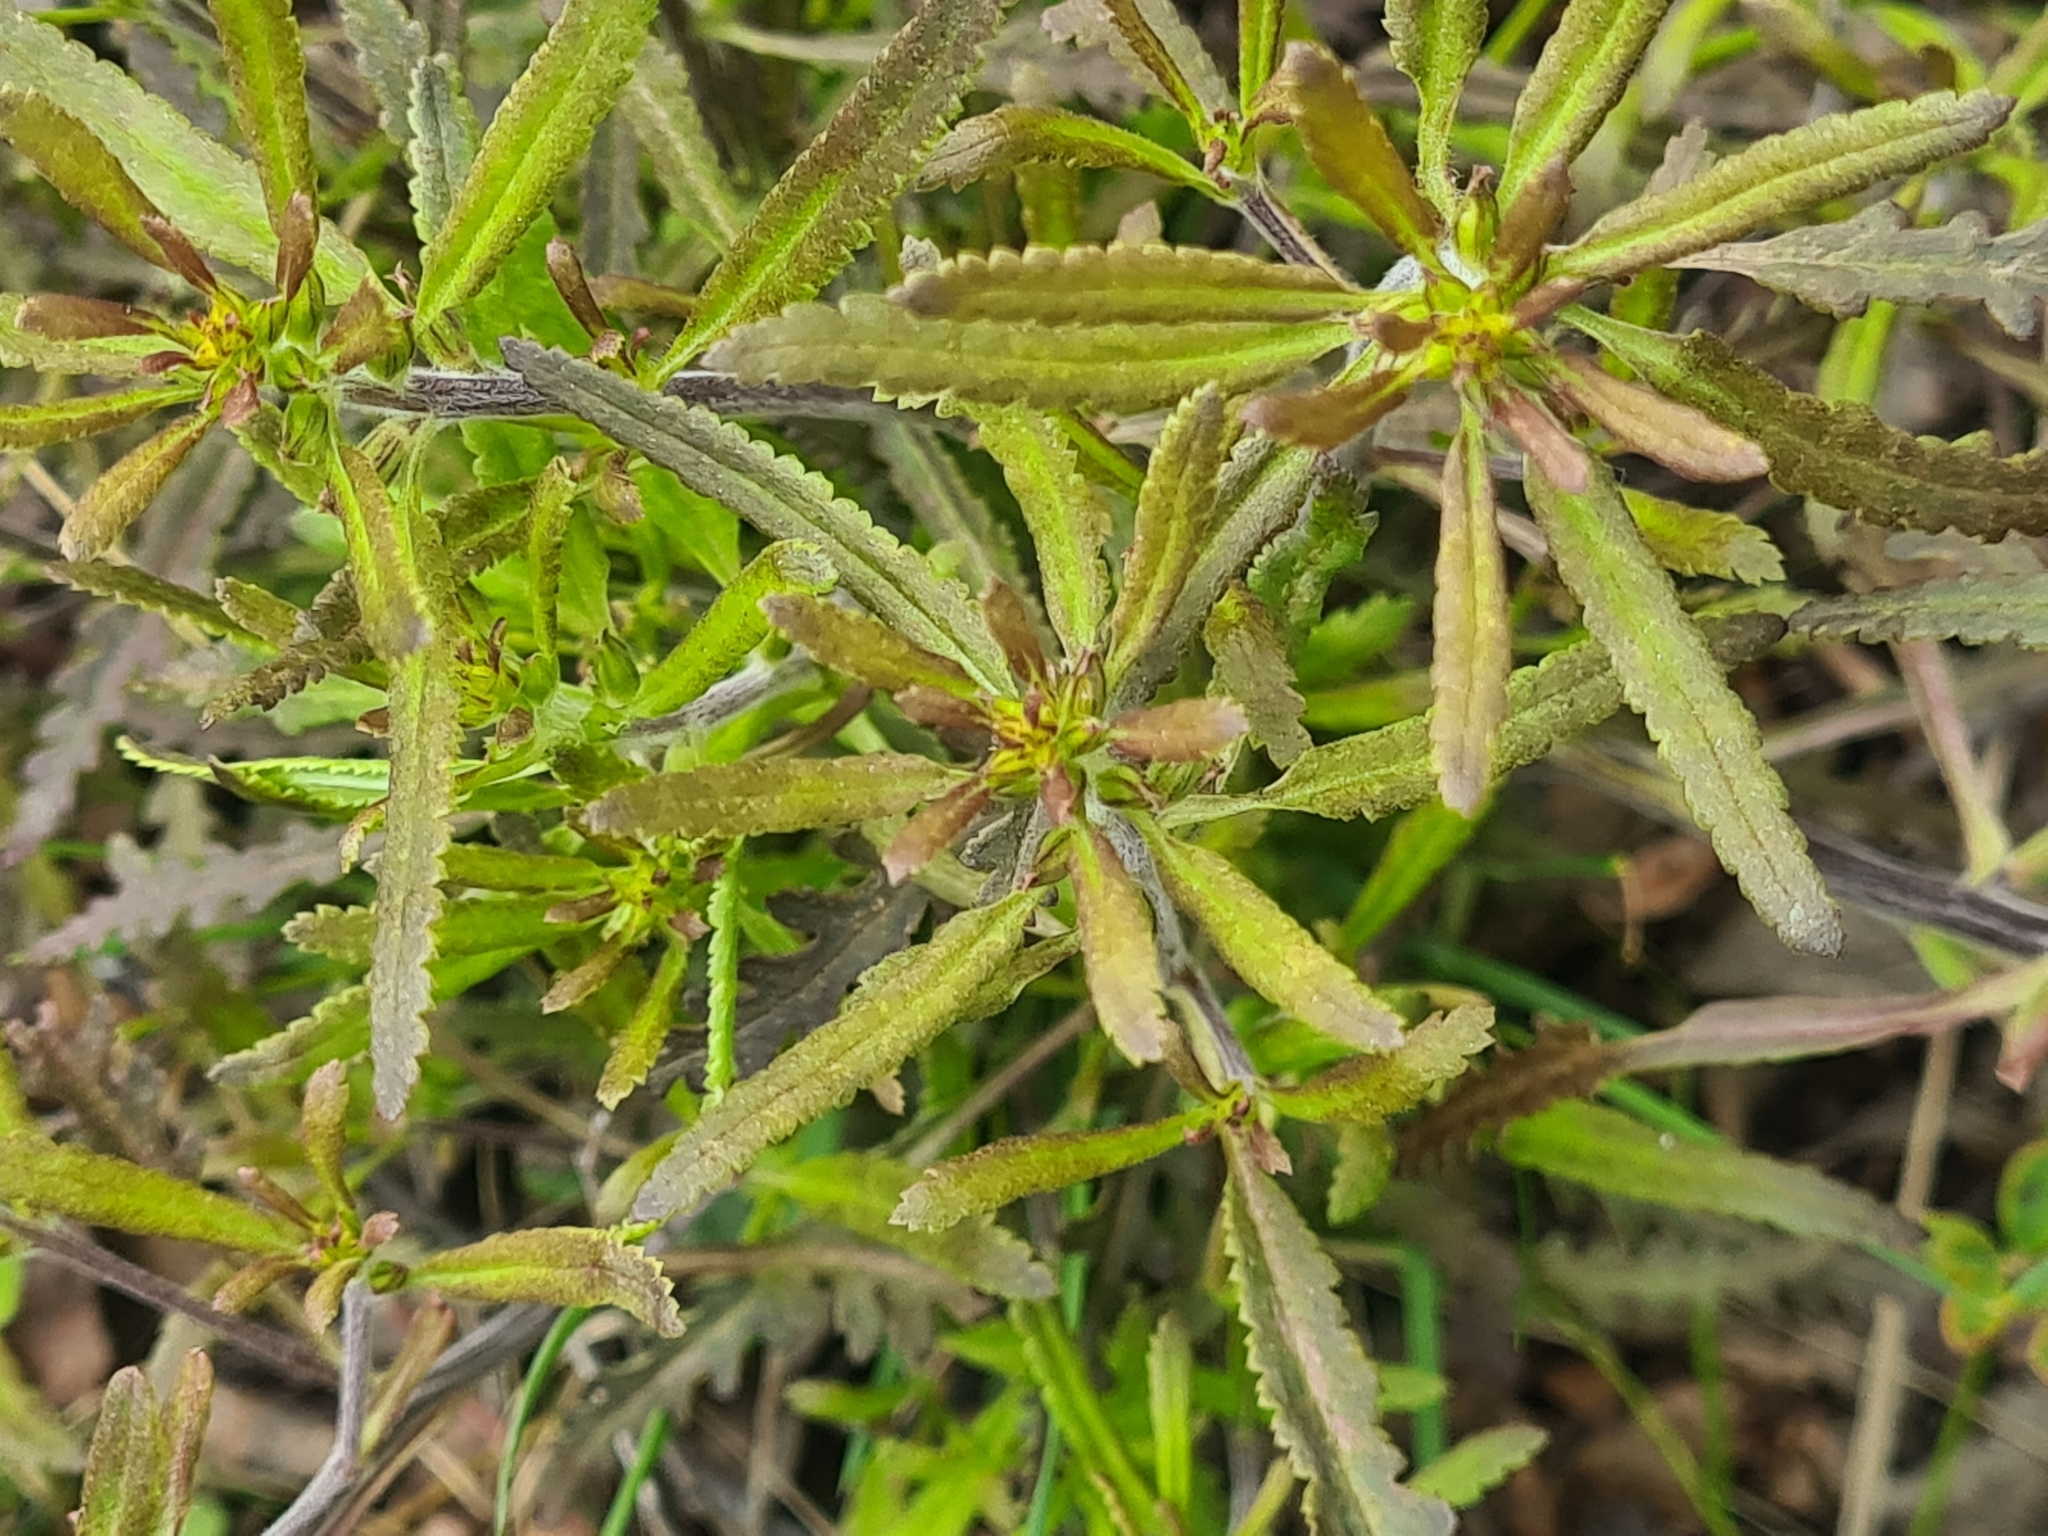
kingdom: Plantae
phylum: Tracheophyta
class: Magnoliopsida
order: Lamiales
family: Orobanchaceae
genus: Pedicularis
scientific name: Pedicularis labradorica
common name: Labrador lousewort
